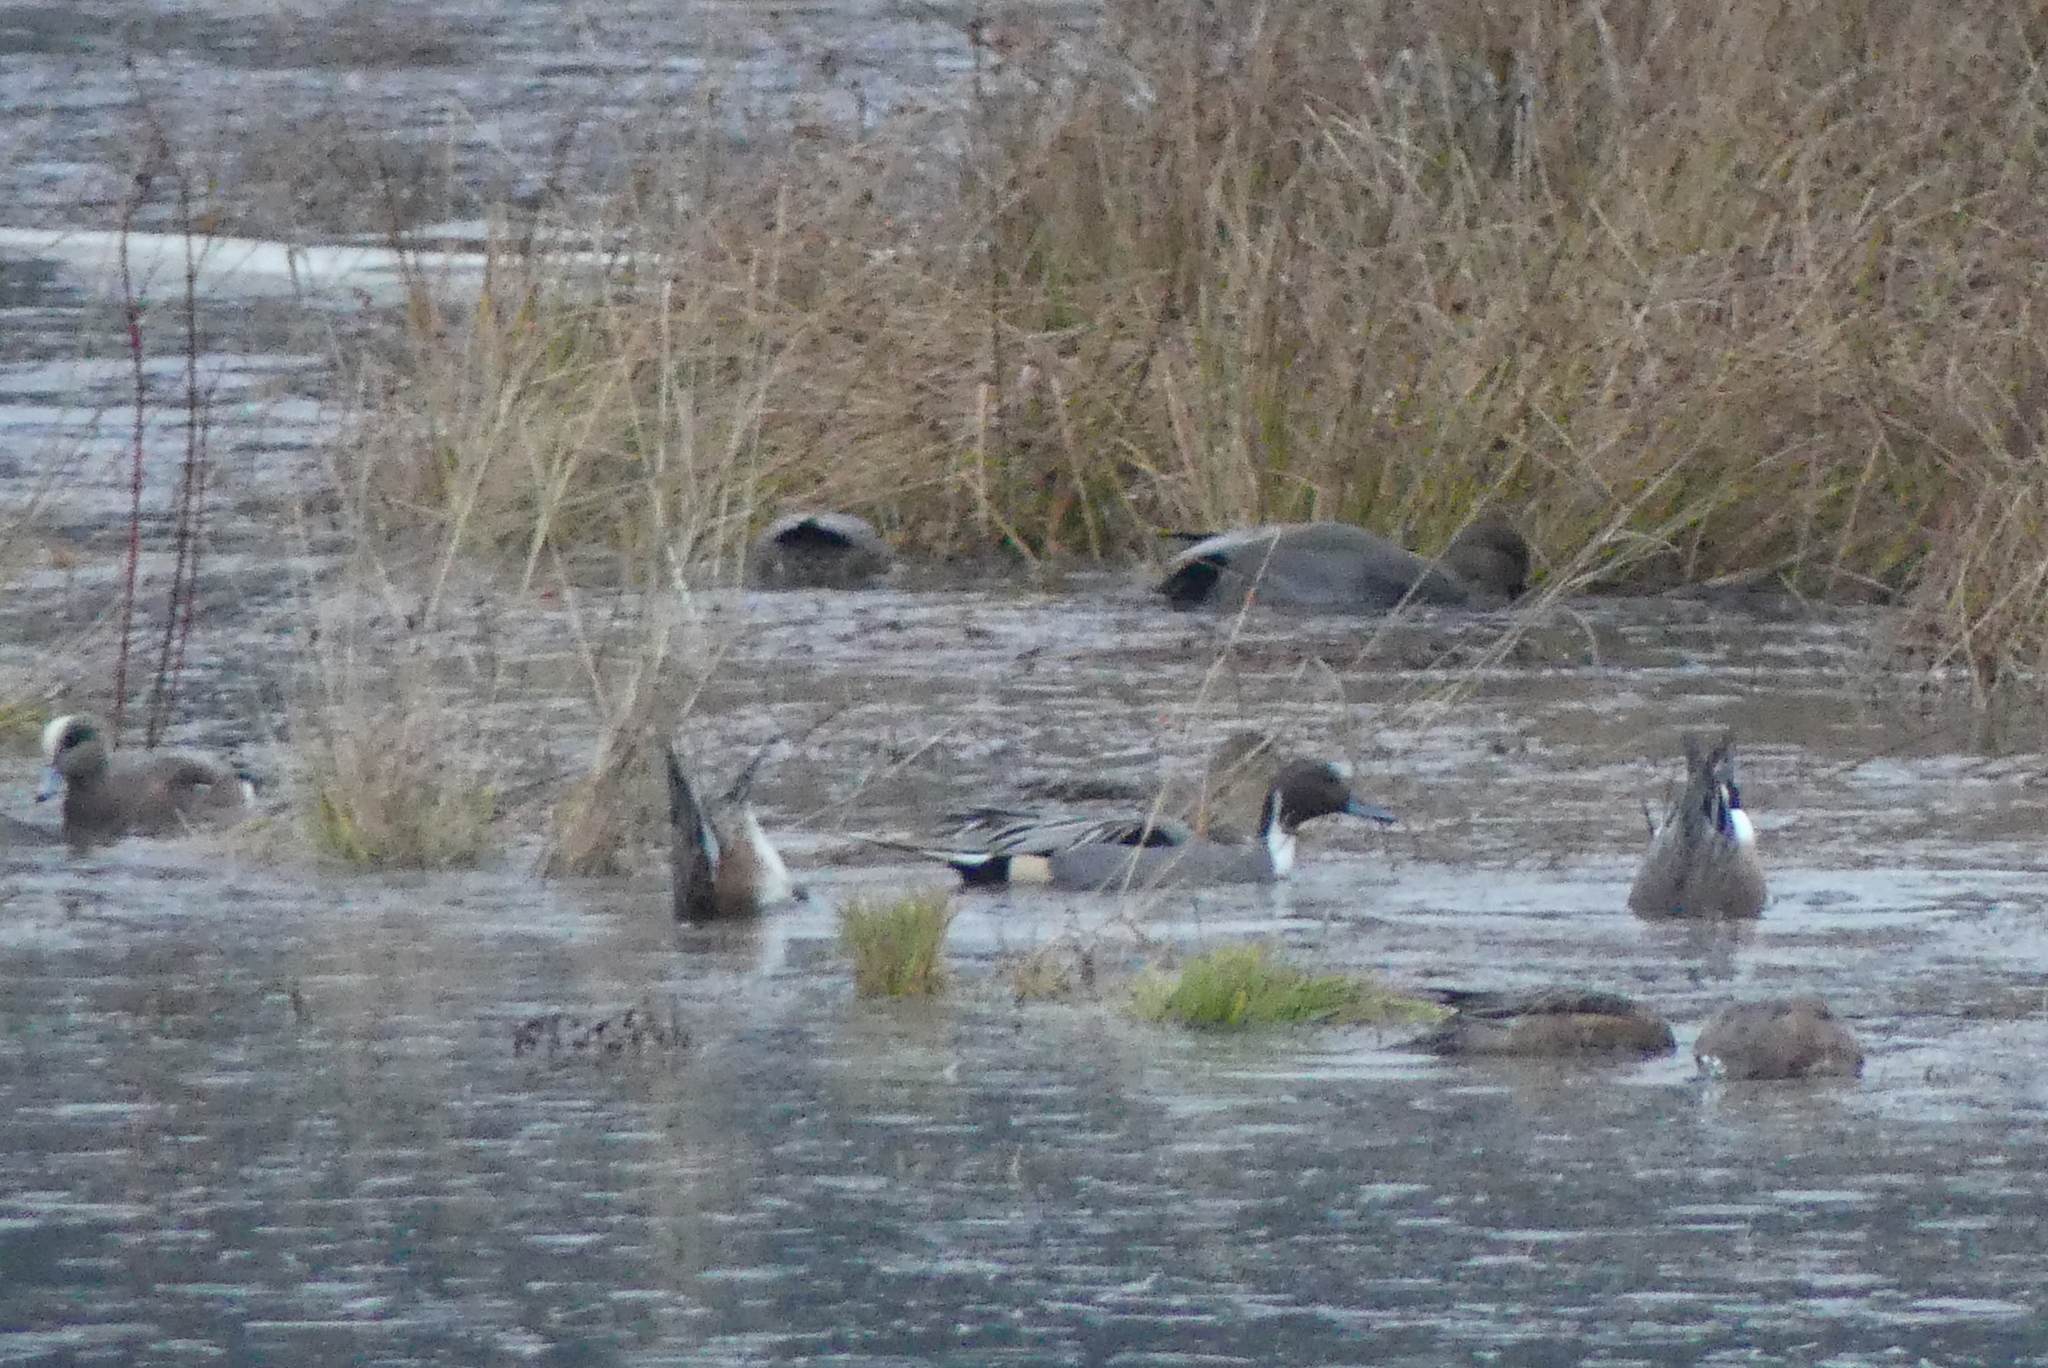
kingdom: Animalia
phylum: Chordata
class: Aves
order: Anseriformes
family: Anatidae
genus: Anas
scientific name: Anas acuta
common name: Northern pintail
